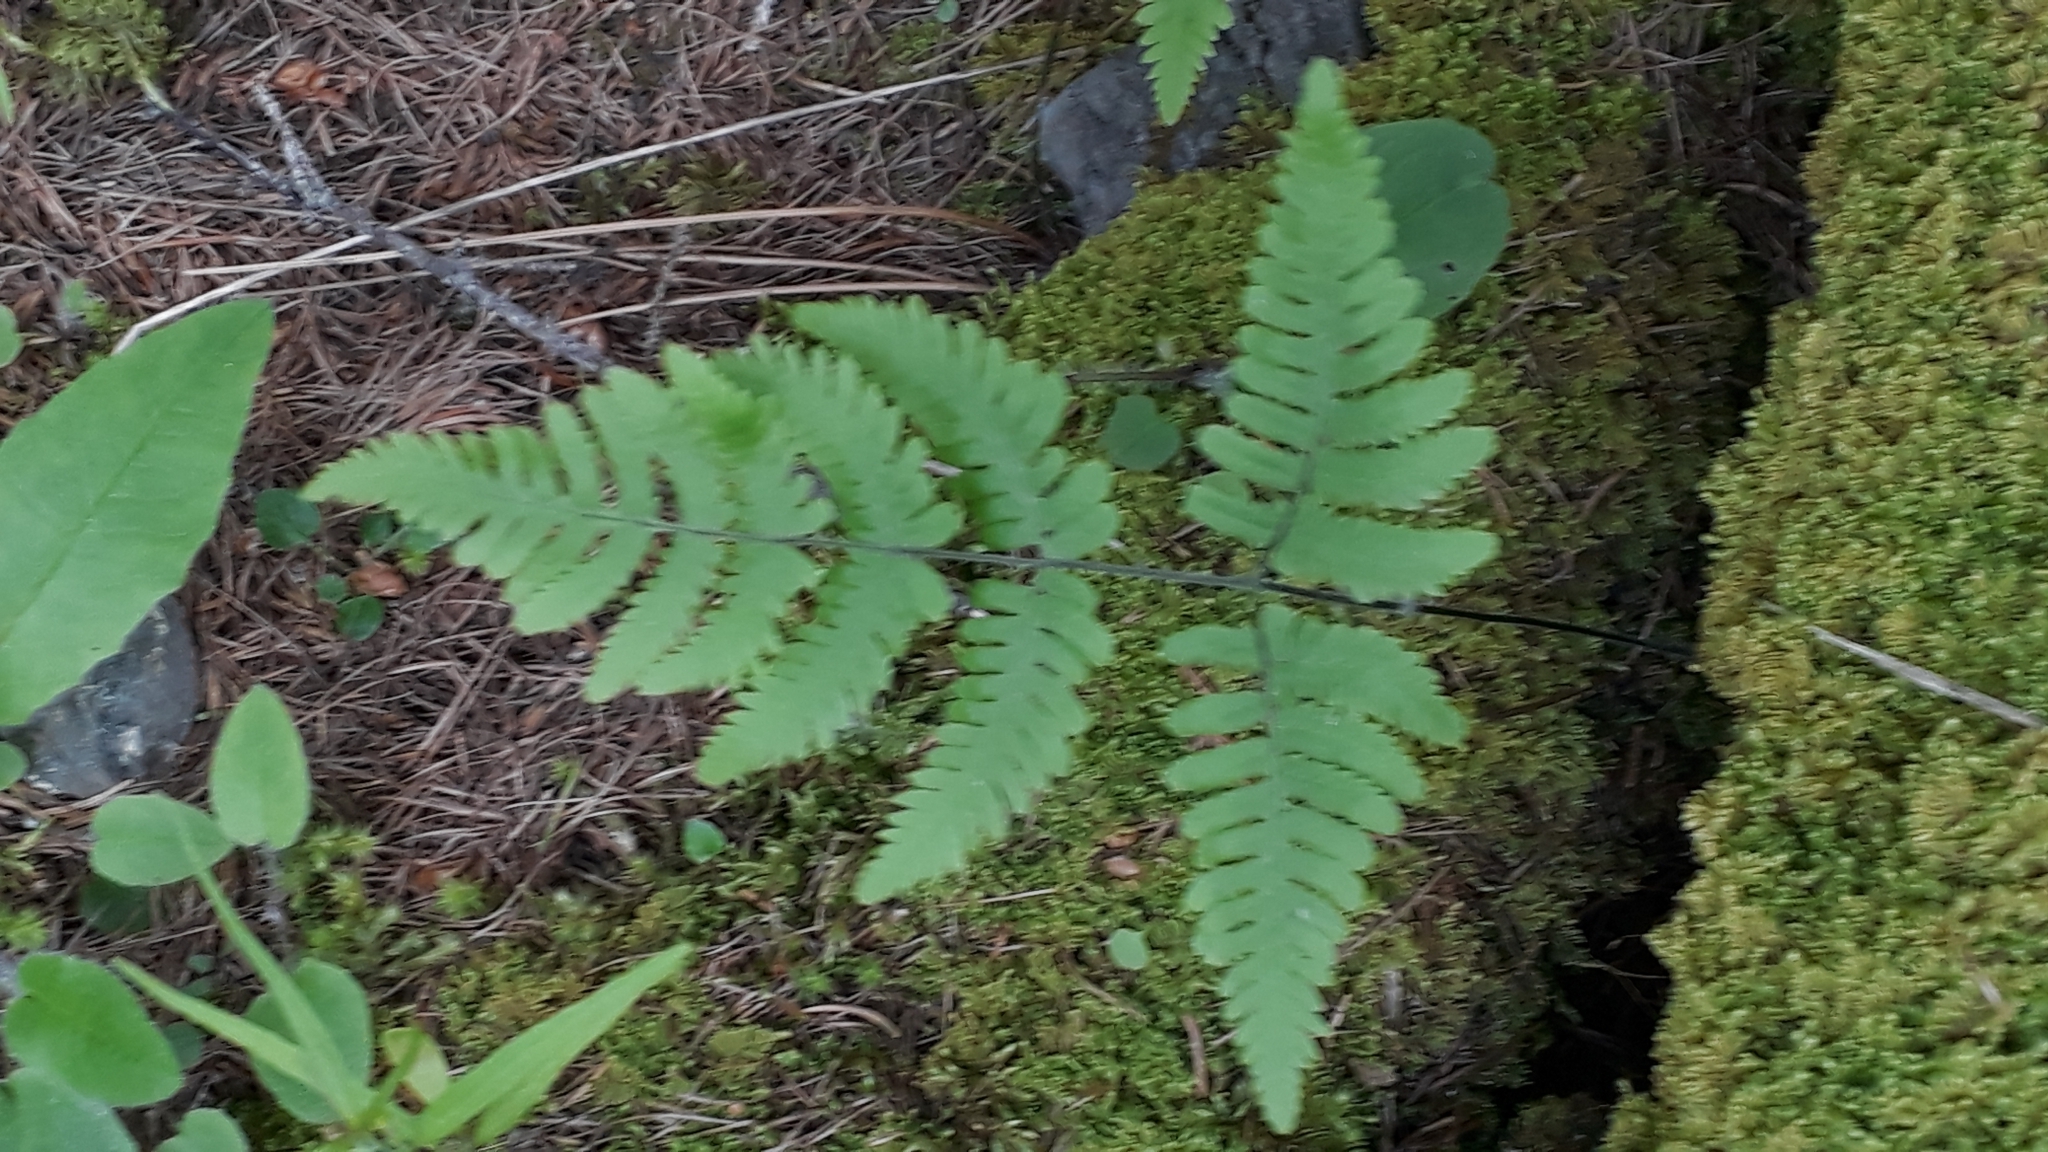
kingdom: Plantae
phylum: Tracheophyta
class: Polypodiopsida
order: Polypodiales
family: Cystopteridaceae
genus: Gymnocarpium
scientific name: Gymnocarpium robertianum
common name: Limestone fern
